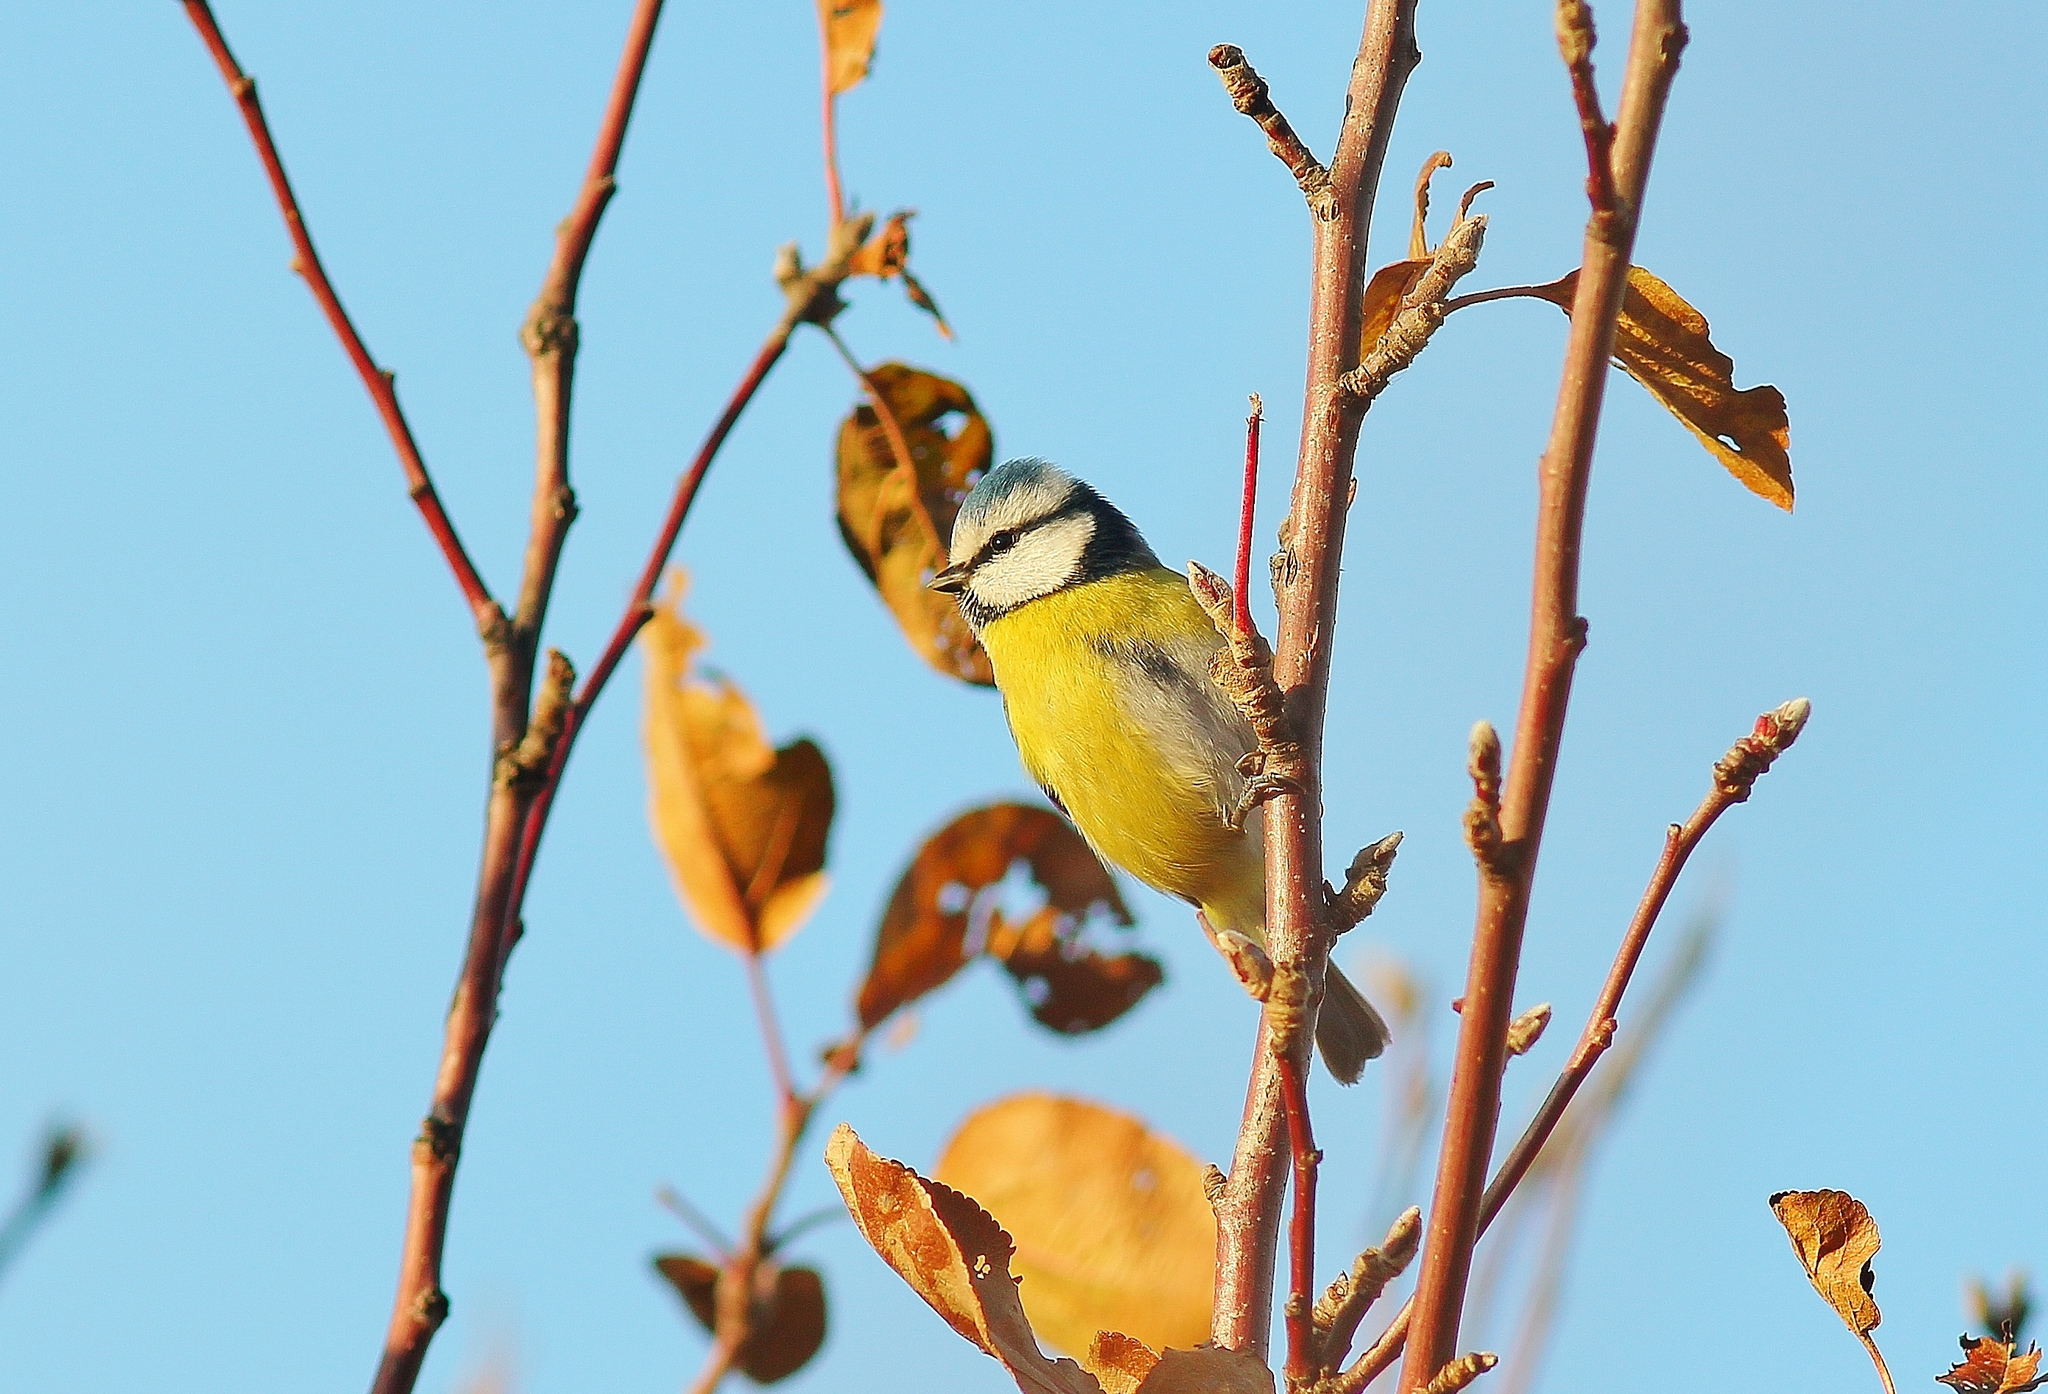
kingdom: Animalia
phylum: Chordata
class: Aves
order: Passeriformes
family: Paridae
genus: Cyanistes
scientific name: Cyanistes caeruleus
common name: Eurasian blue tit
